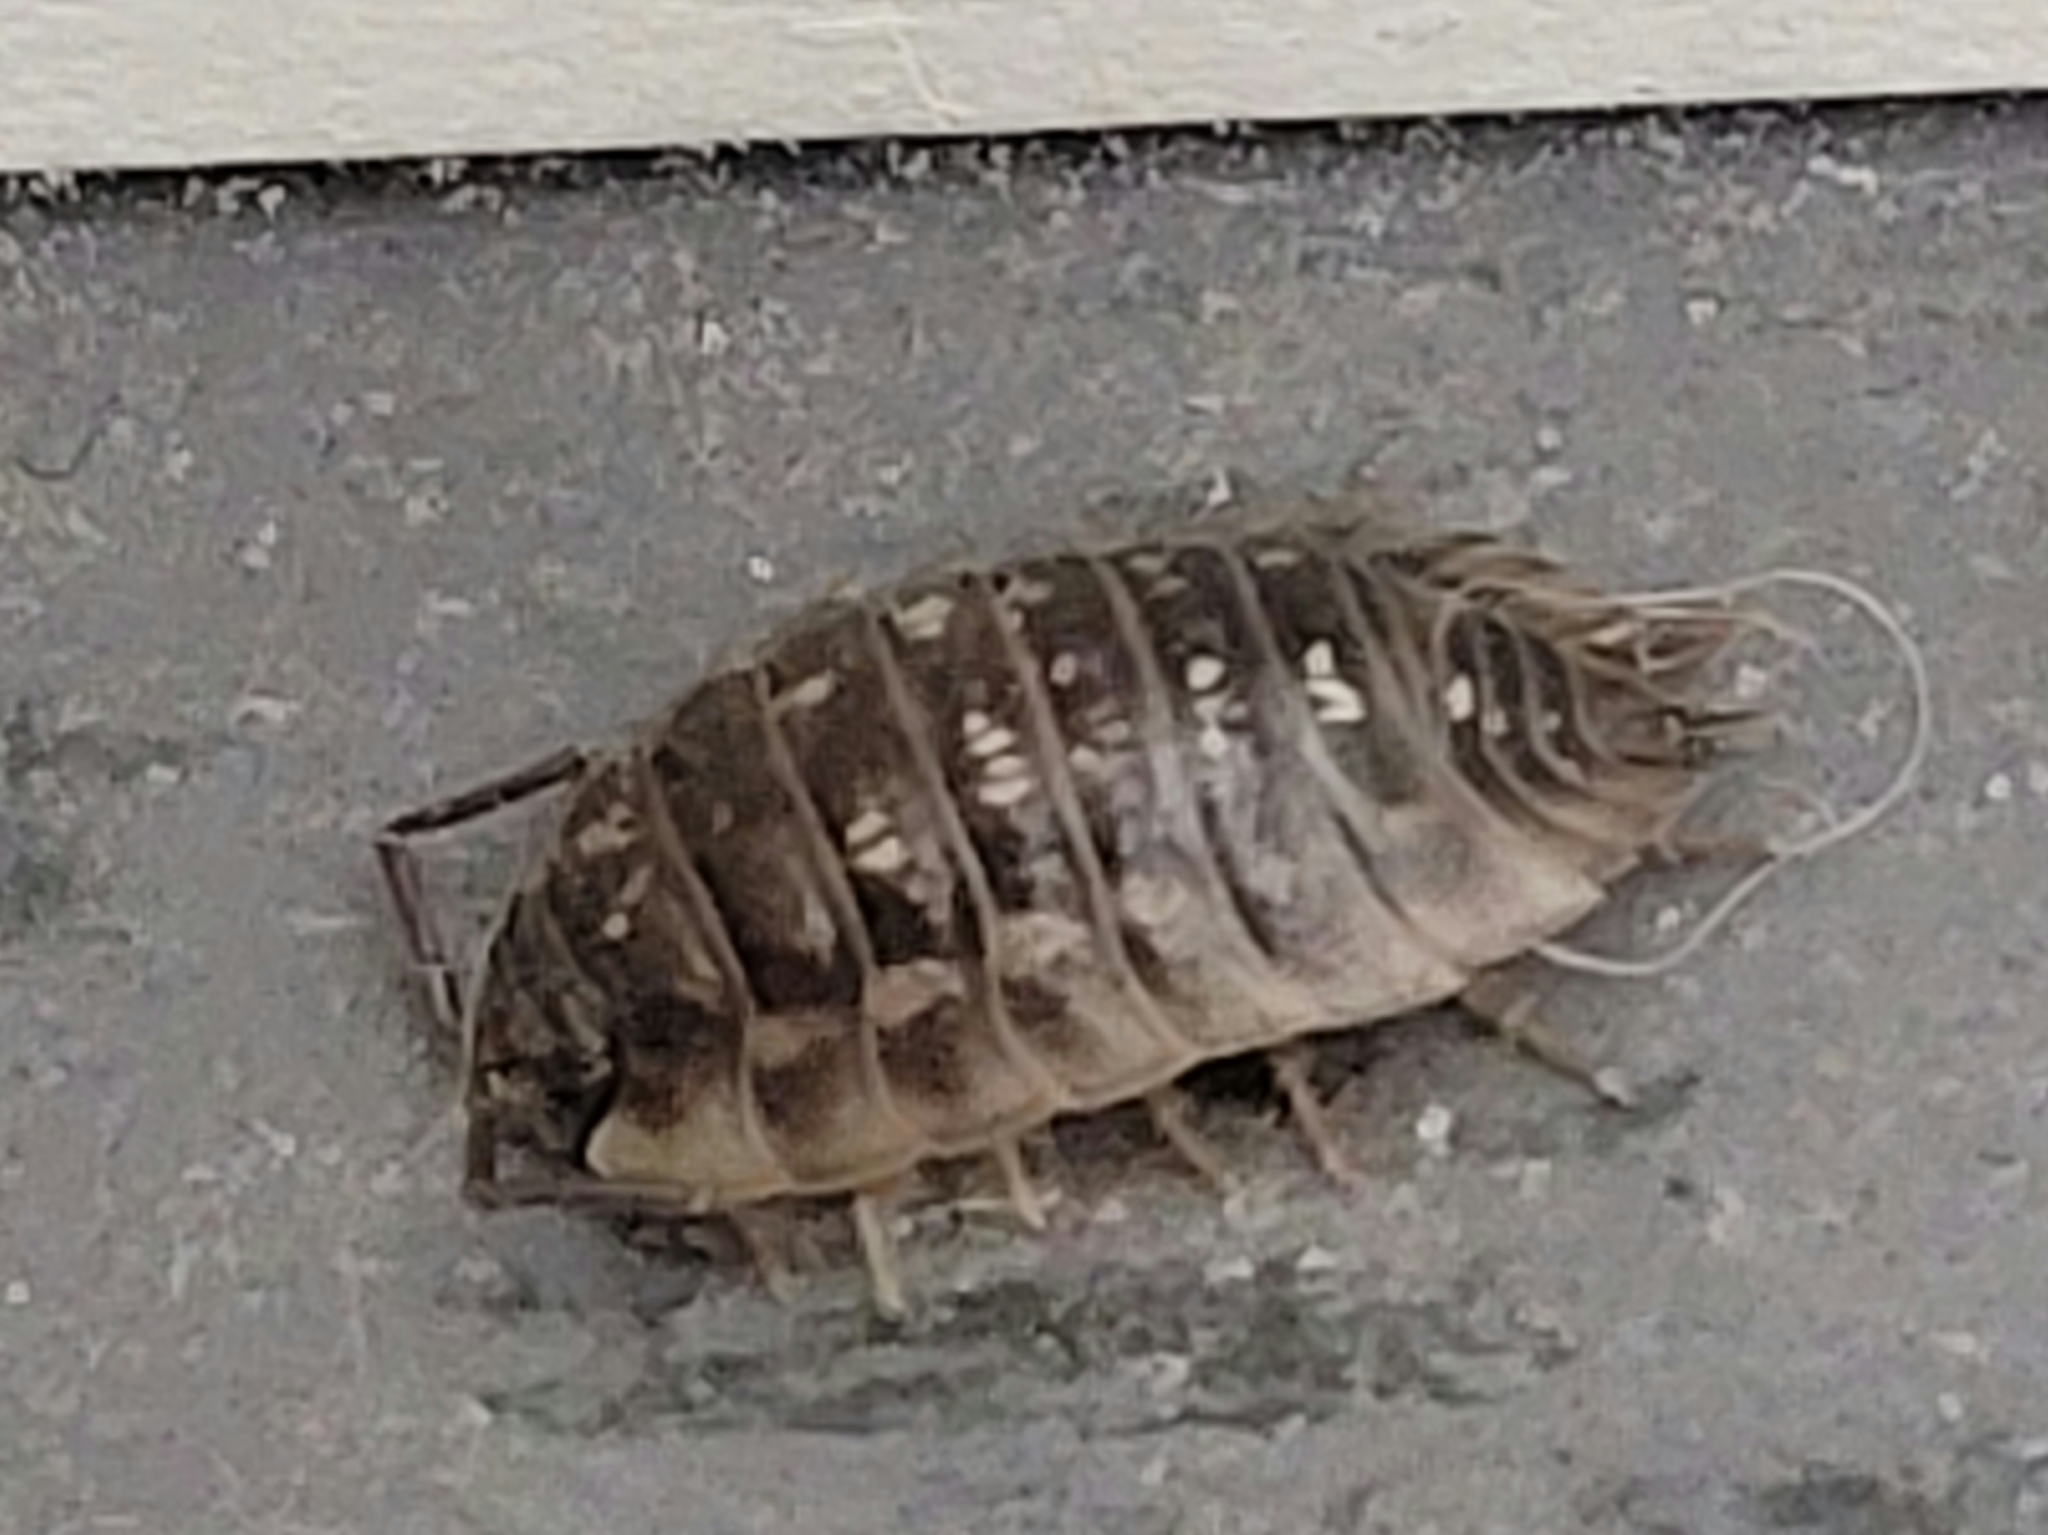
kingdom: Animalia
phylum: Arthropoda
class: Malacostraca
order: Isopoda
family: Oniscidae
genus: Oniscus
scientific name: Oniscus asellus
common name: Common shiny woodlouse
